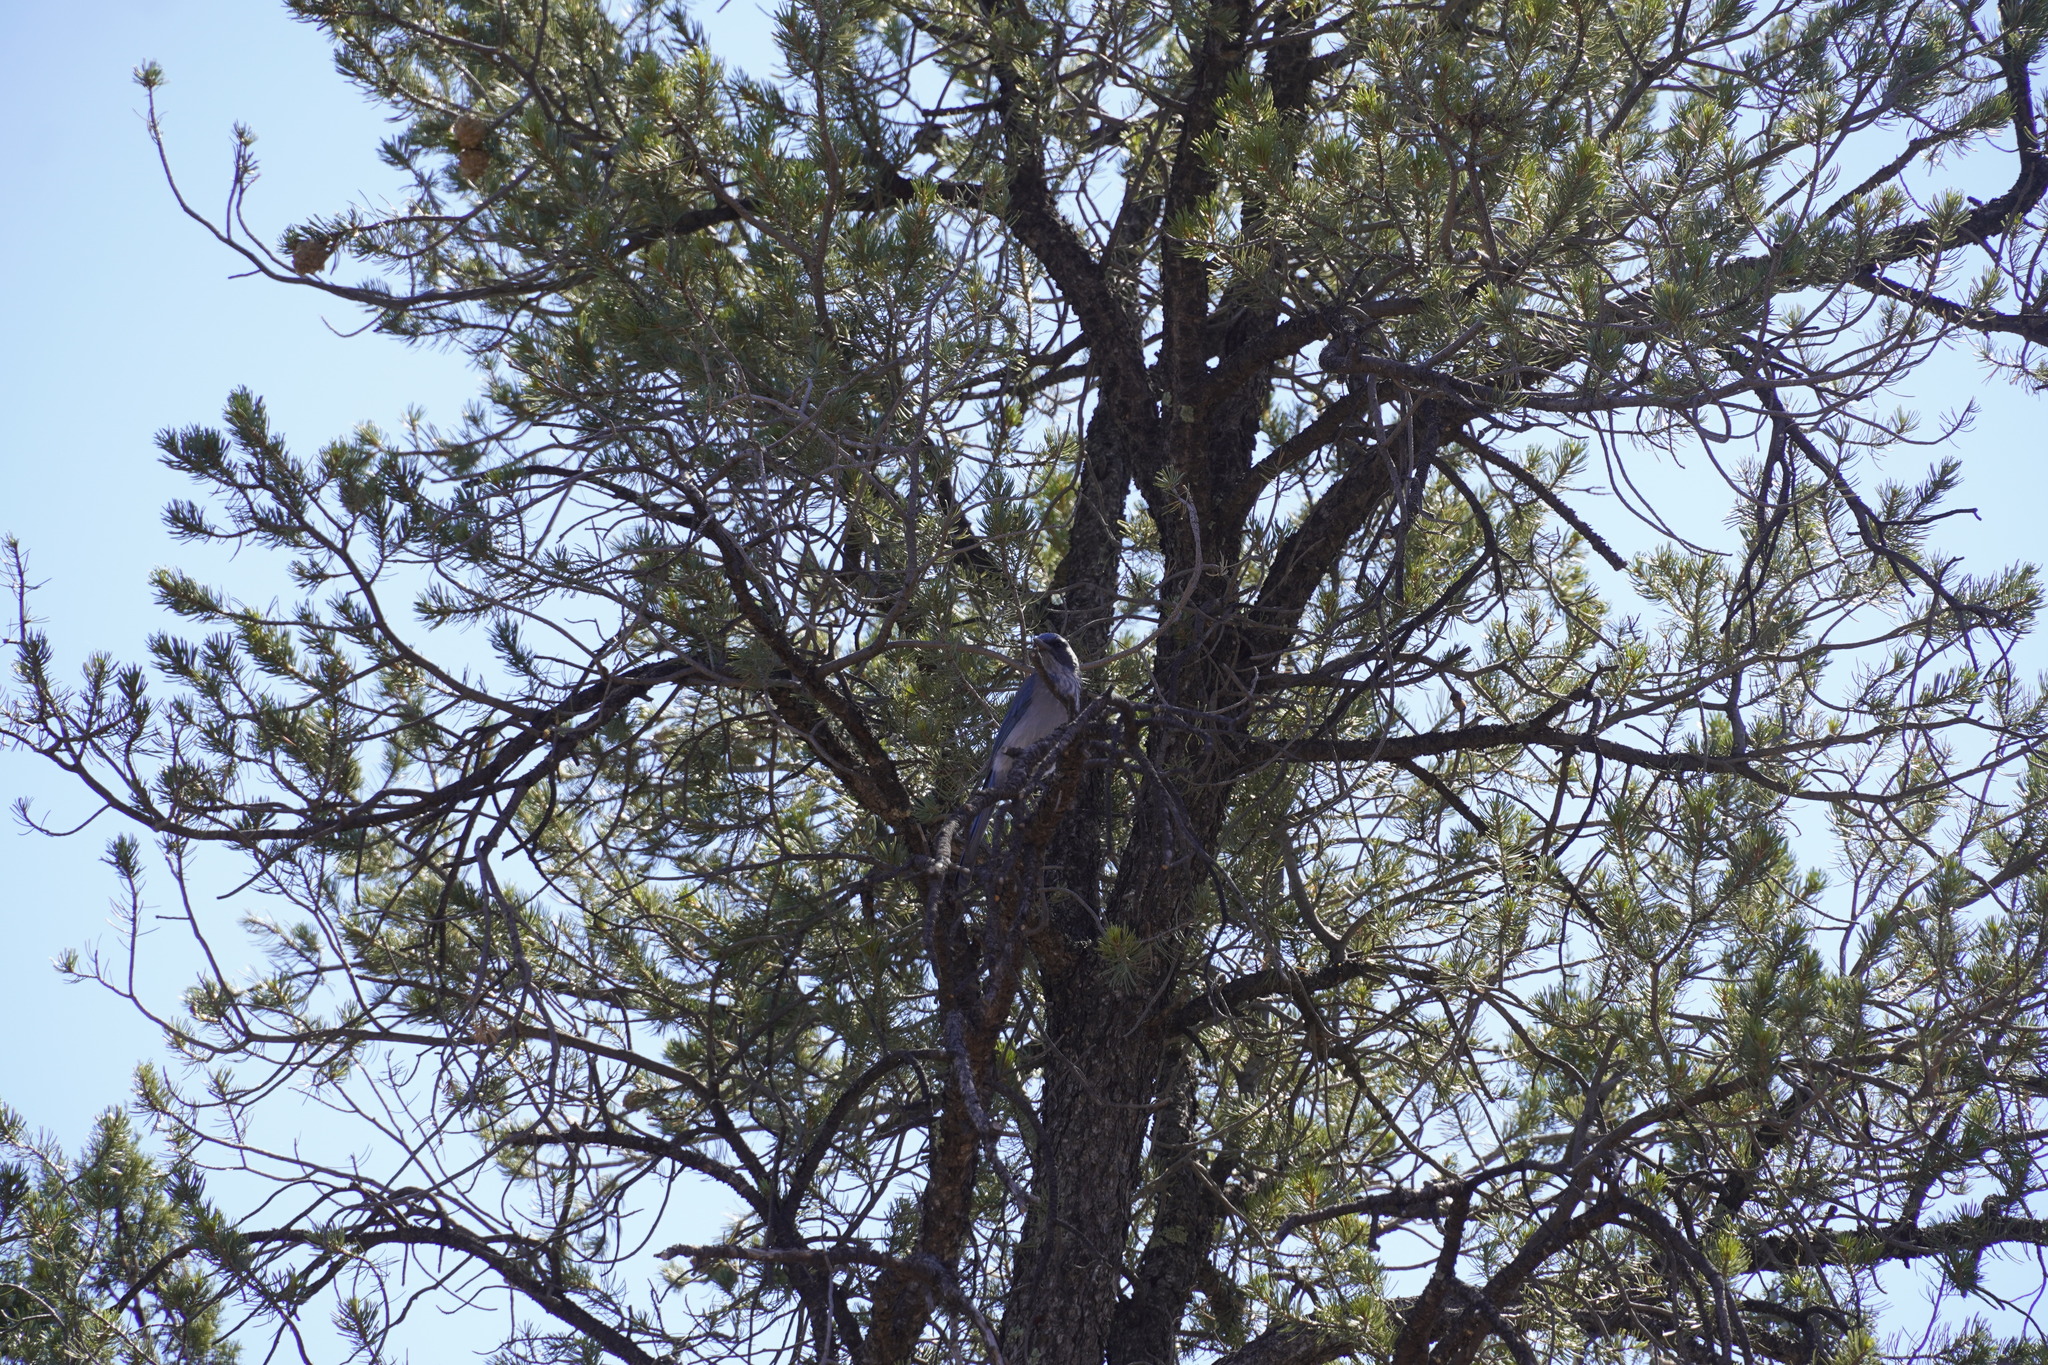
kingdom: Animalia
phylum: Chordata
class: Aves
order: Passeriformes
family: Corvidae
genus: Aphelocoma
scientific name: Aphelocoma woodhouseii
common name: Woodhouse's scrub-jay
